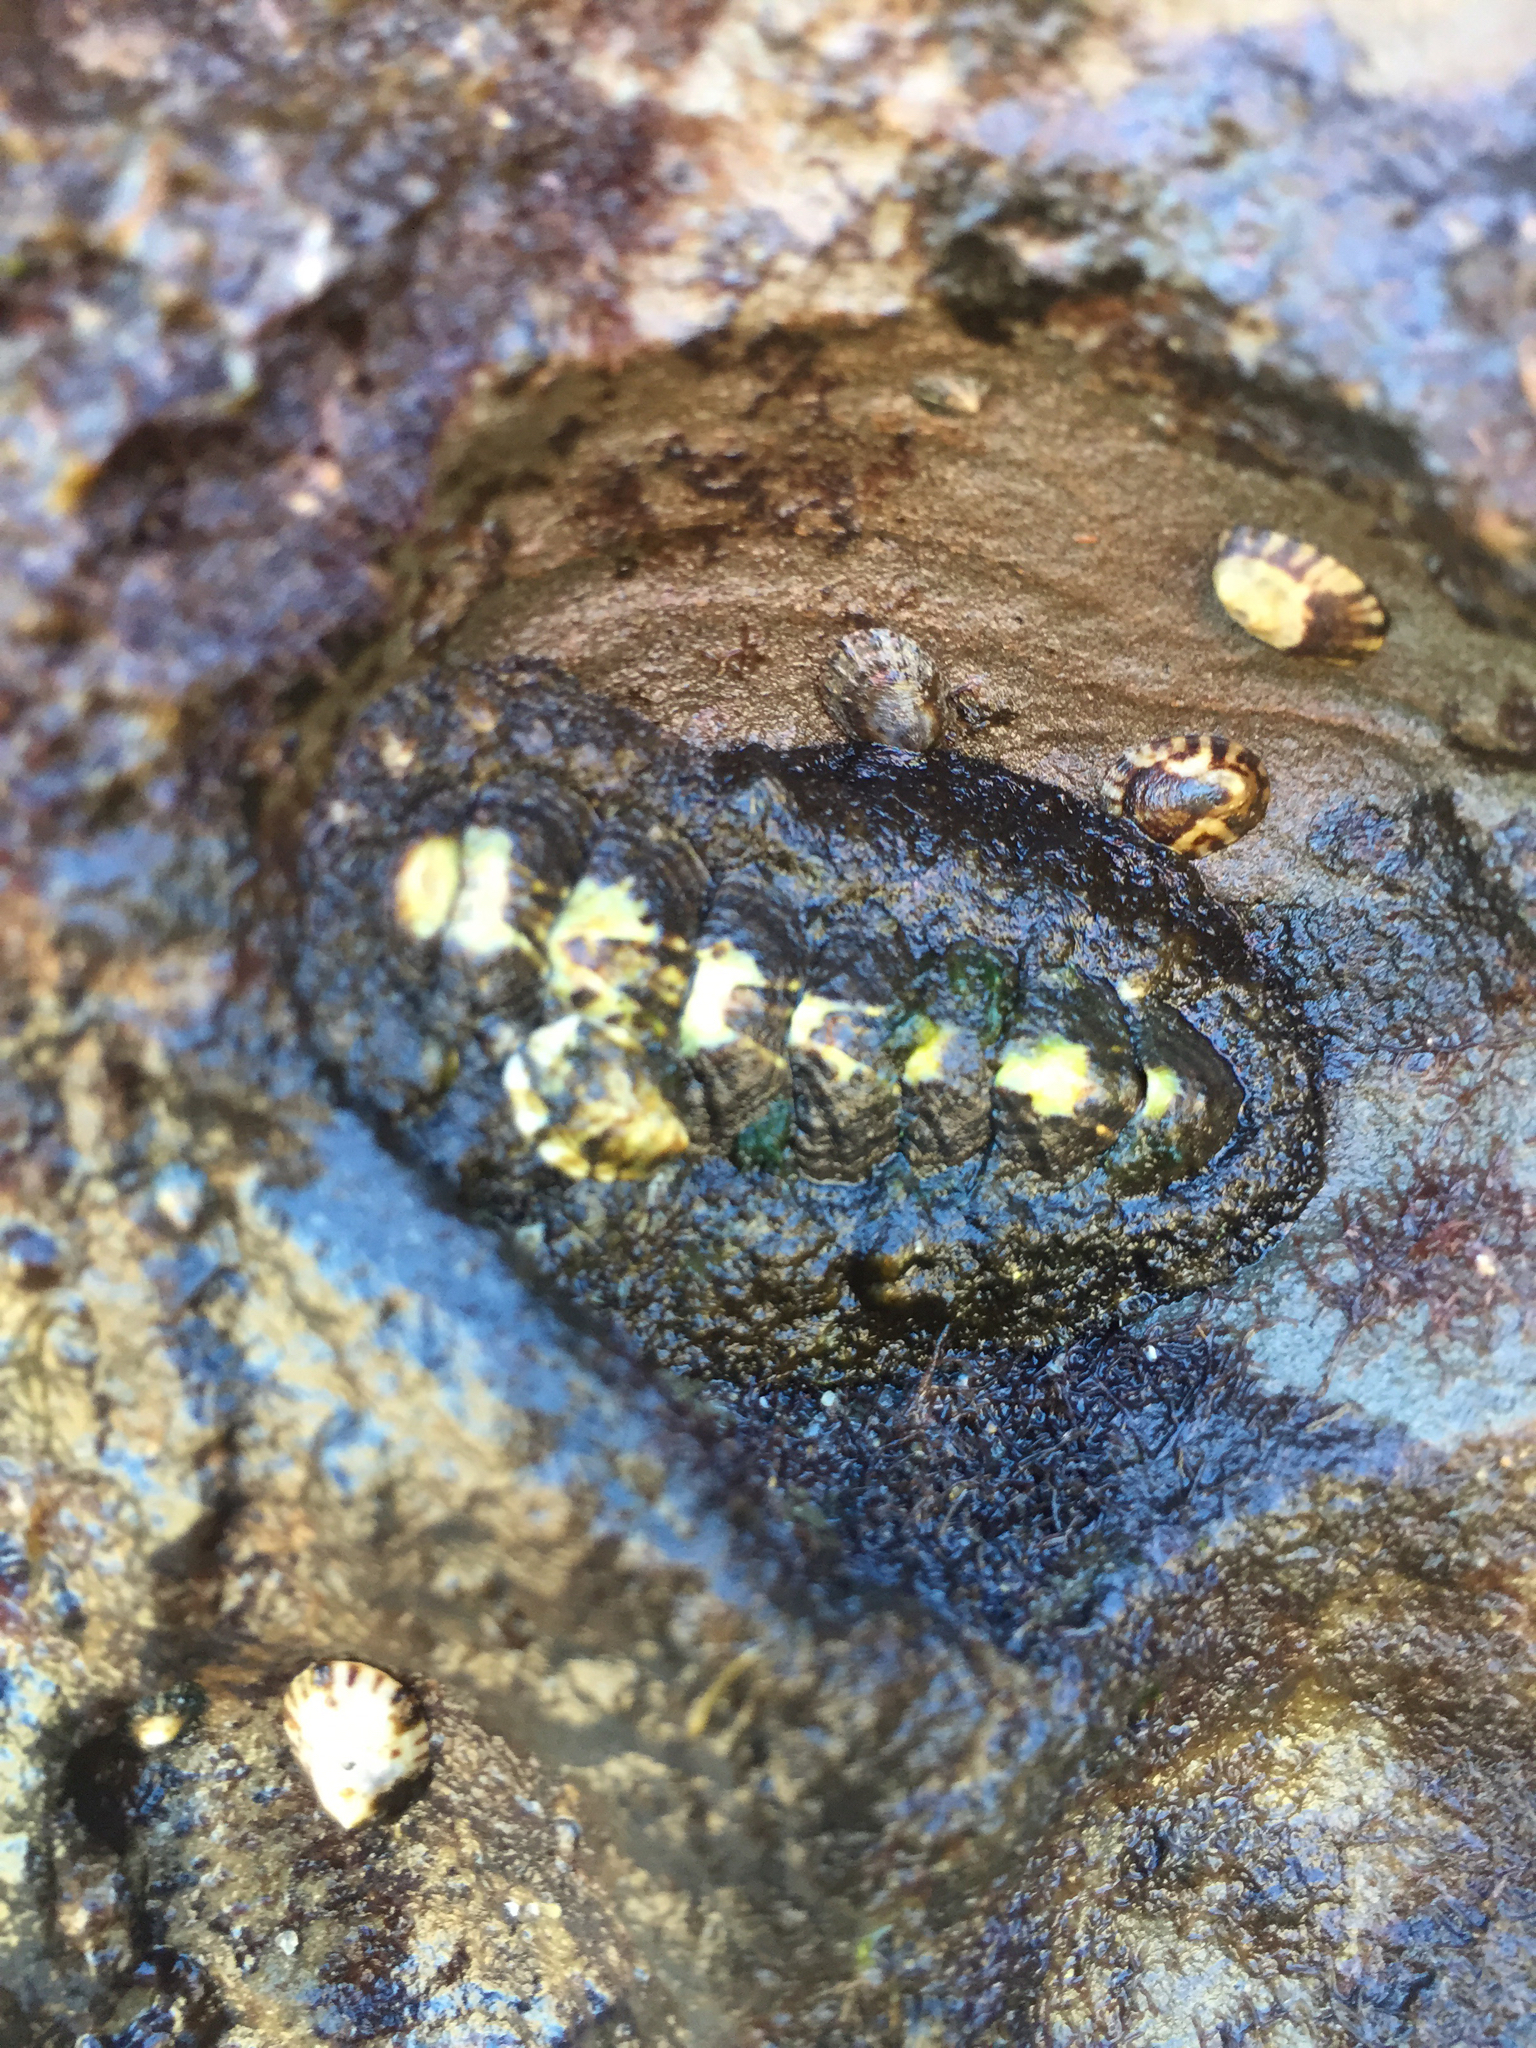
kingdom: Animalia
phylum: Mollusca
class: Polyplacophora
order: Chitonida
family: Tonicellidae
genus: Nuttallina
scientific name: Nuttallina californica
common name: California nuttall chiton
